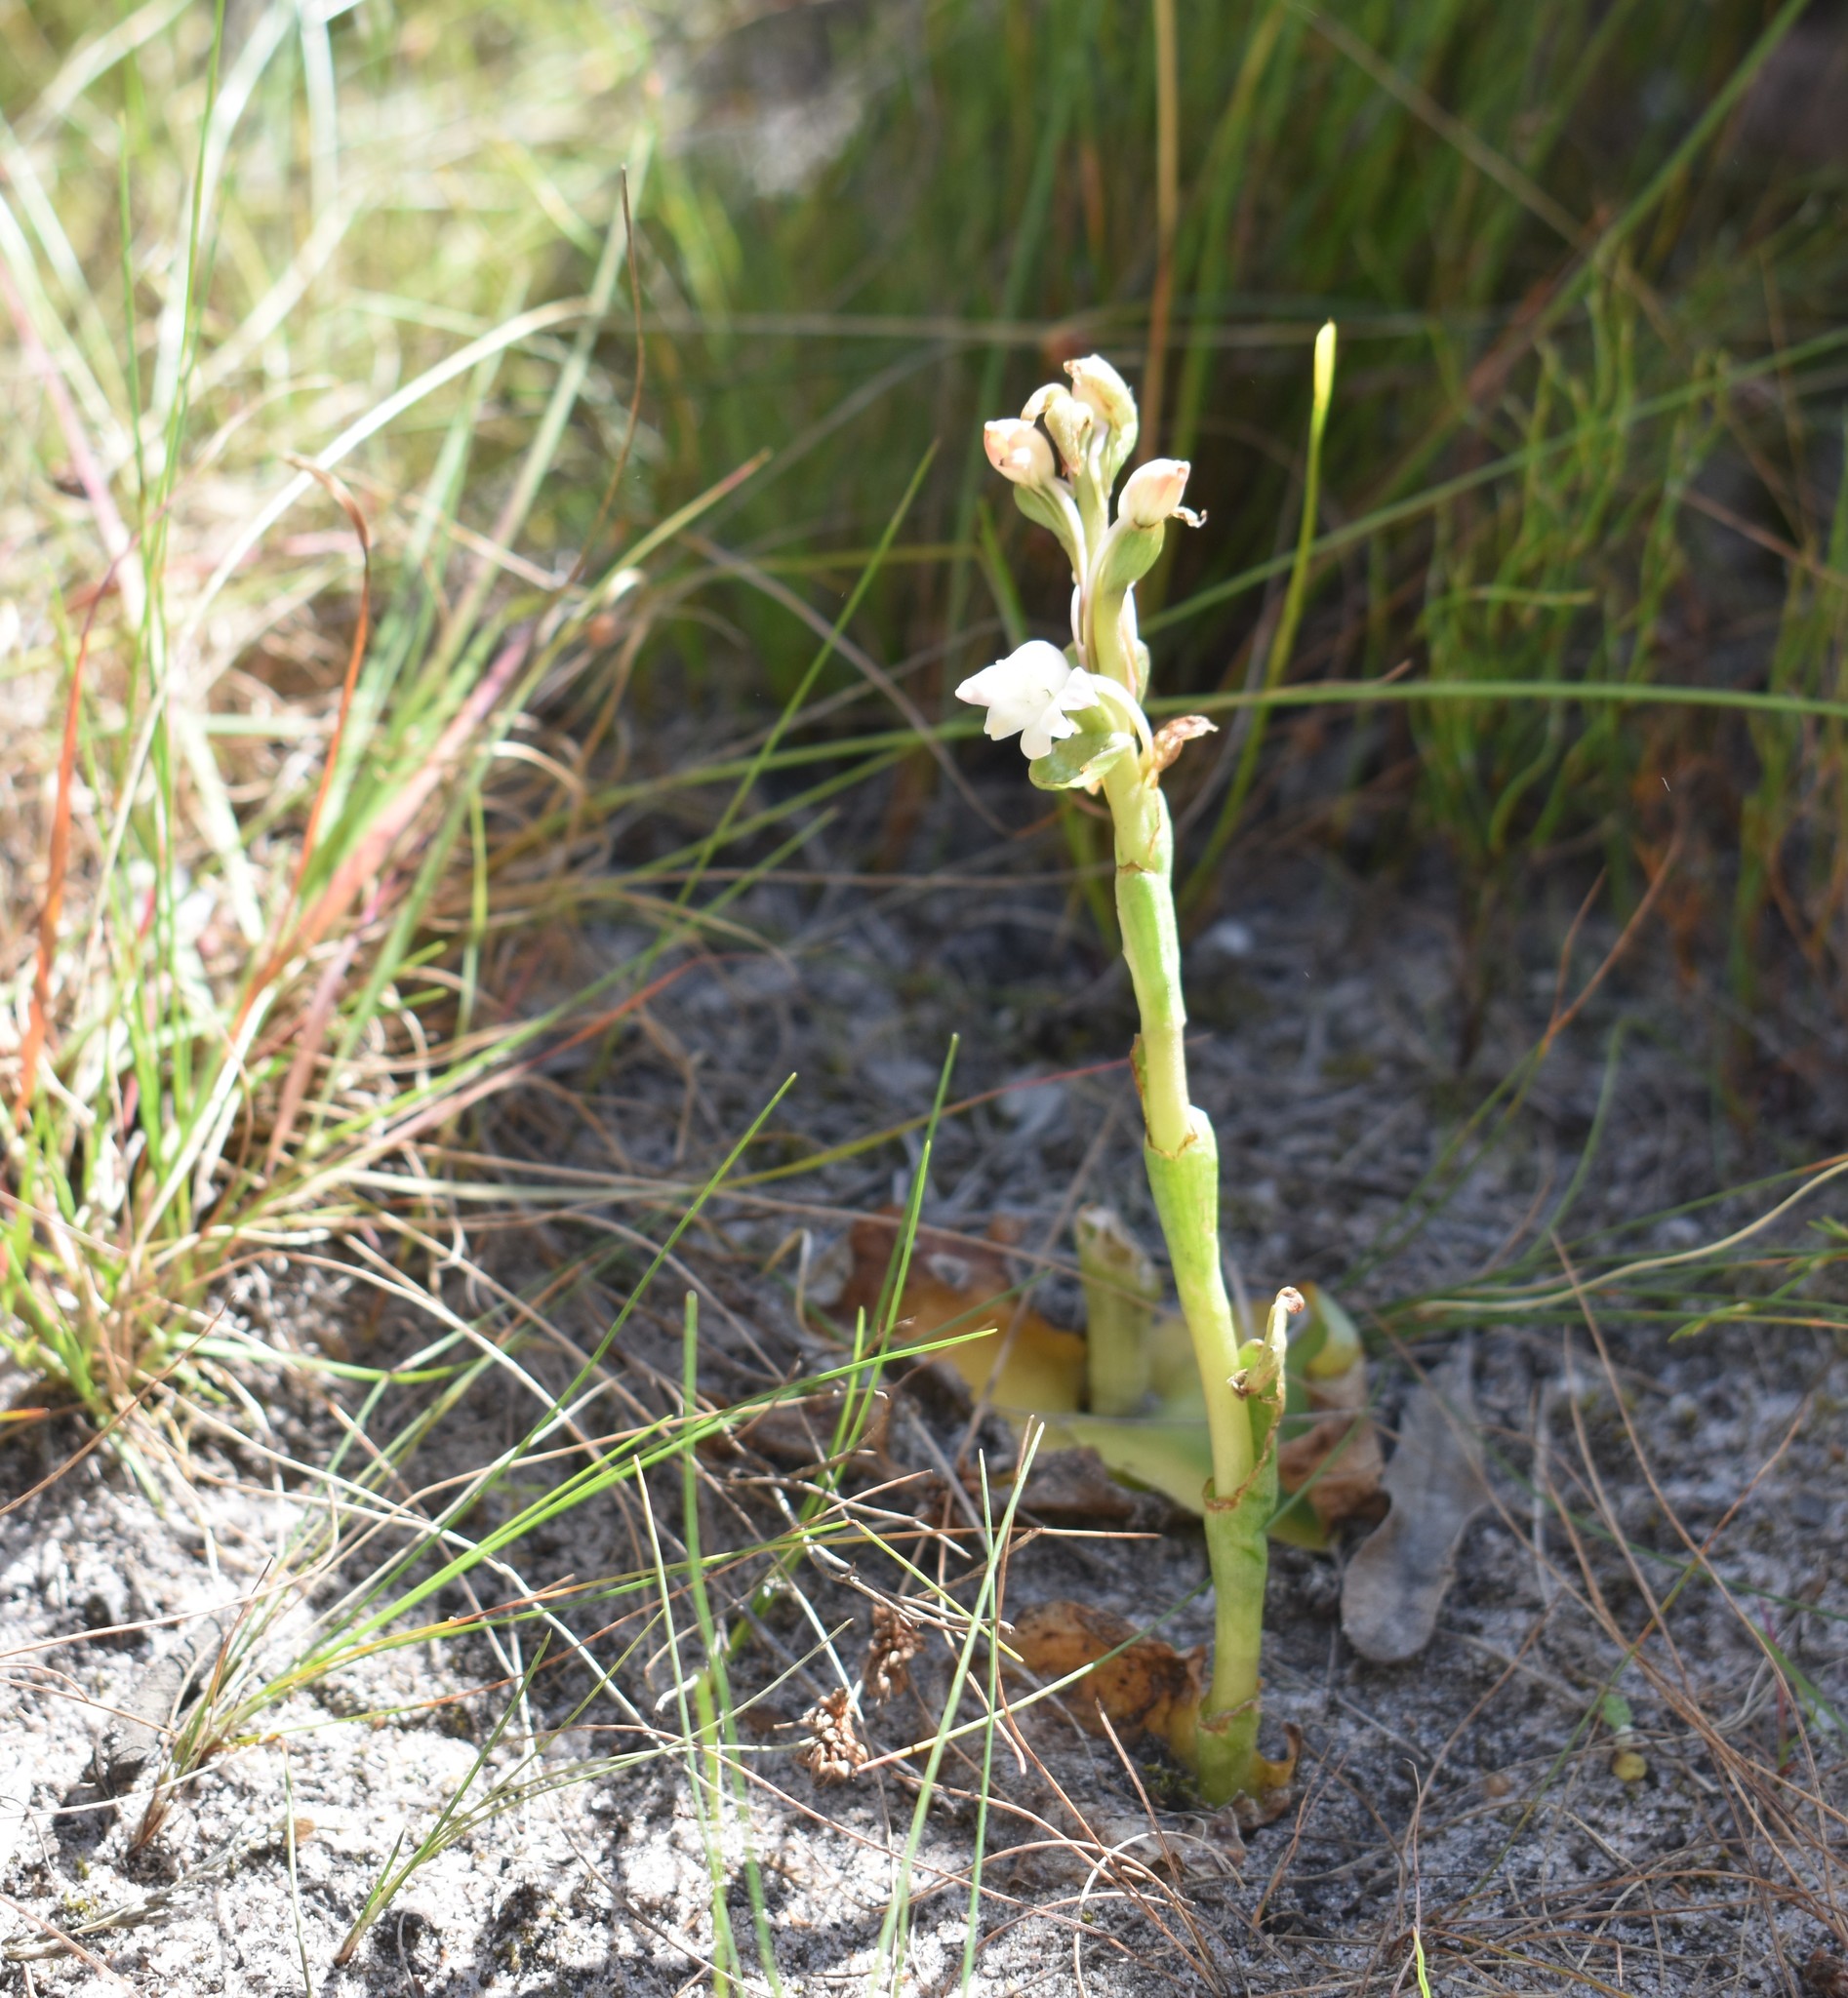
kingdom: Plantae
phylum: Tracheophyta
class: Liliopsida
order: Asparagales
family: Orchidaceae
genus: Satyrium
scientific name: Satyrium acuminatum
